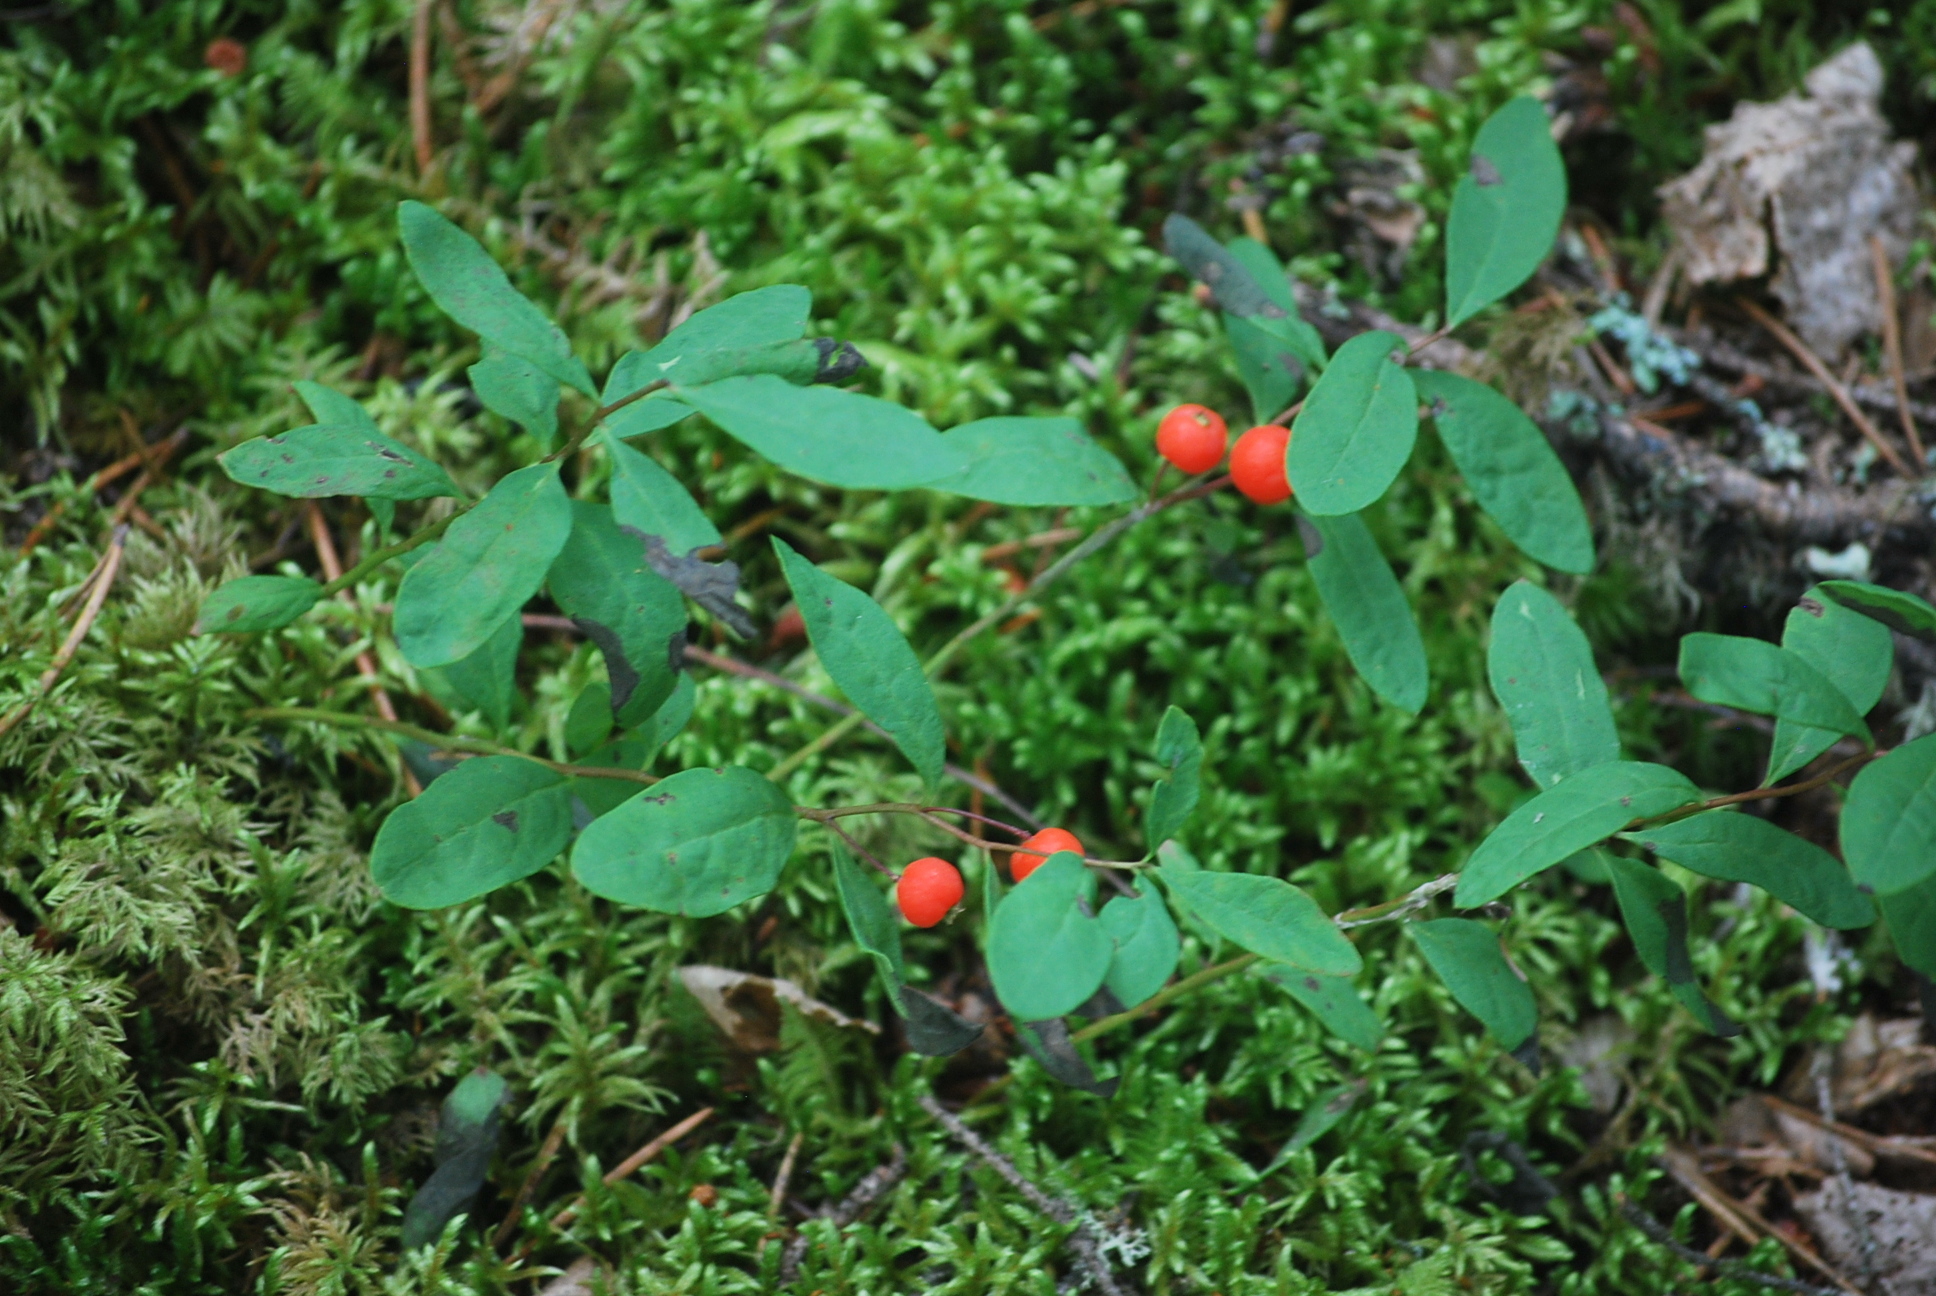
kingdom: Plantae
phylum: Tracheophyta
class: Magnoliopsida
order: Santalales
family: Comandraceae
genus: Geocaulon
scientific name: Geocaulon lividum
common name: Earthberry
